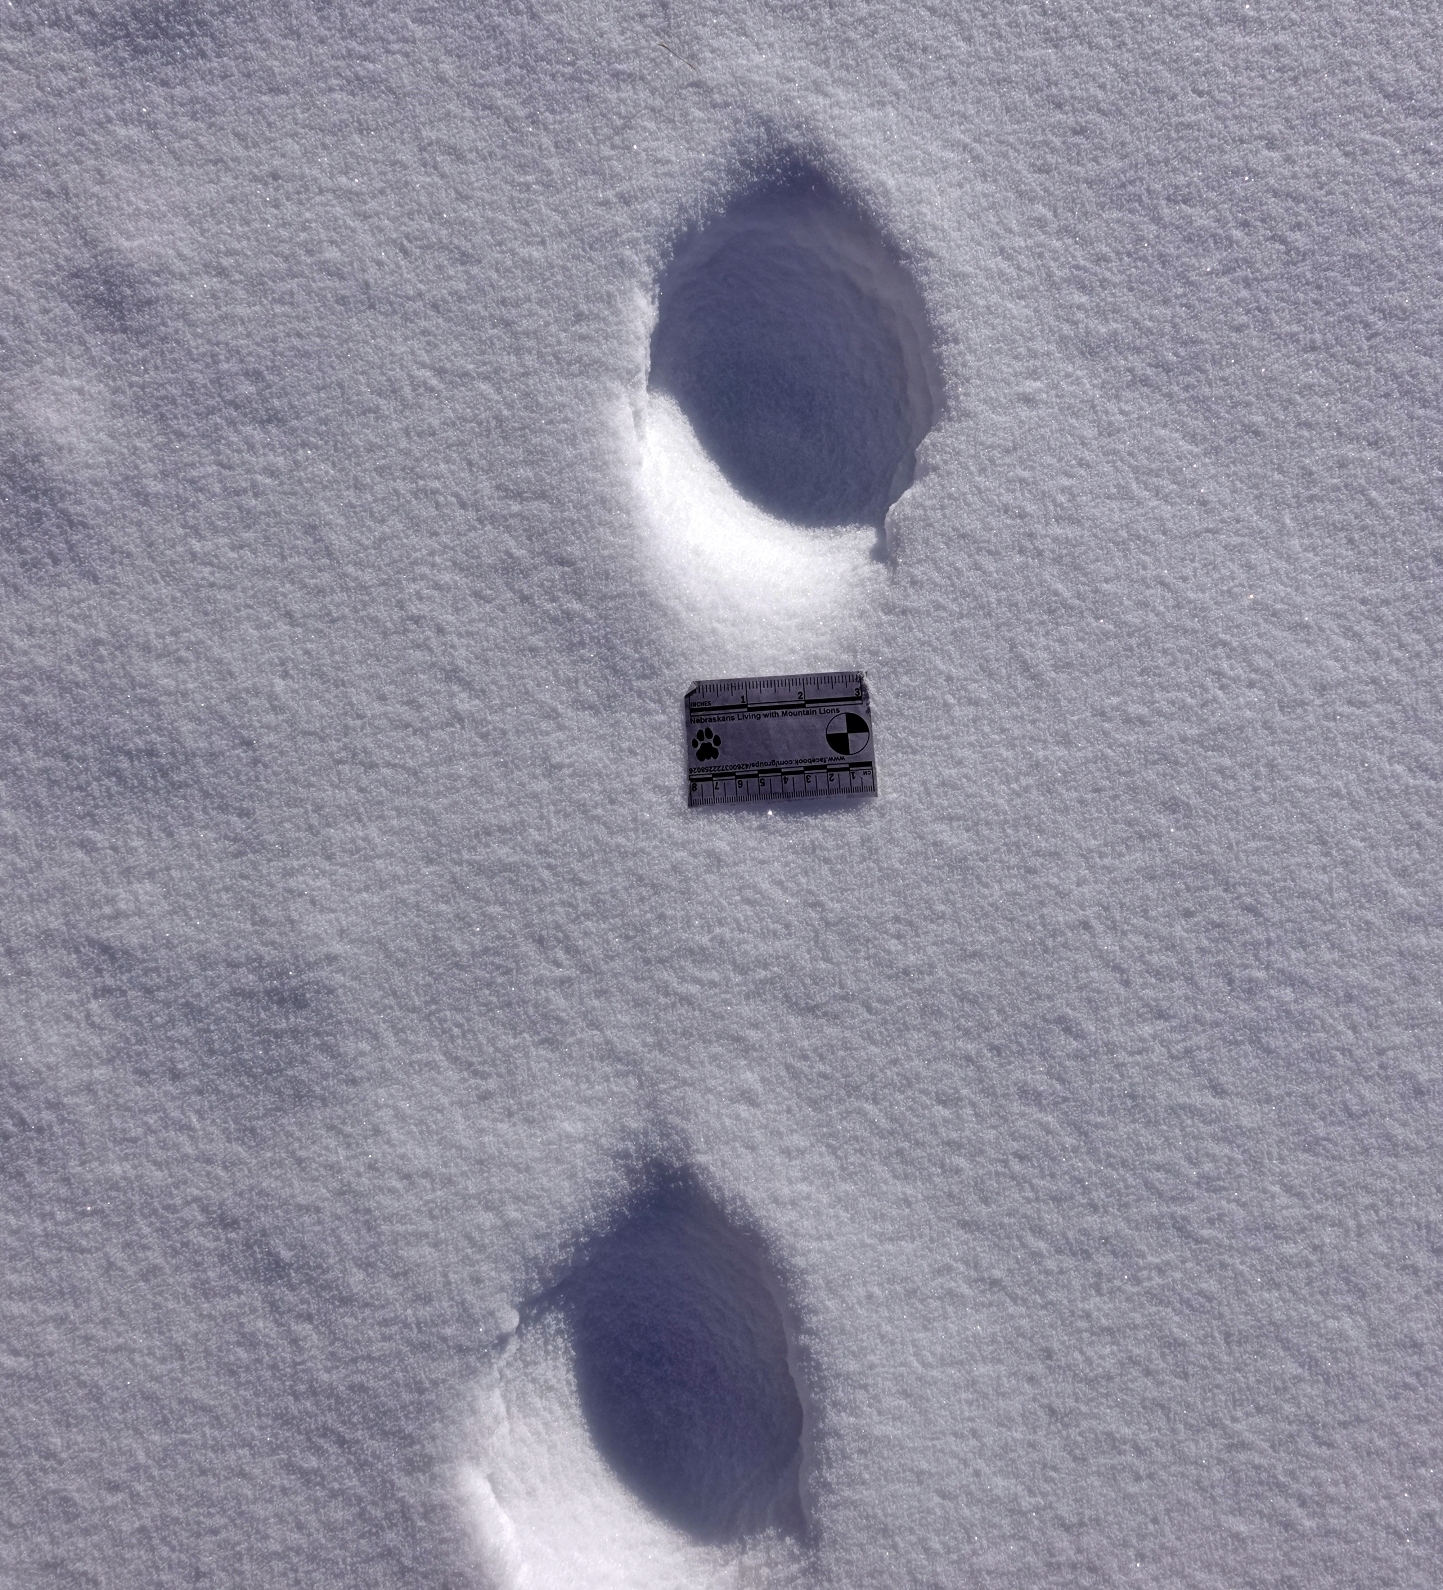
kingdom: Animalia
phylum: Chordata
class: Mammalia
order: Carnivora
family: Felidae
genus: Puma
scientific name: Puma concolor
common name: Puma
